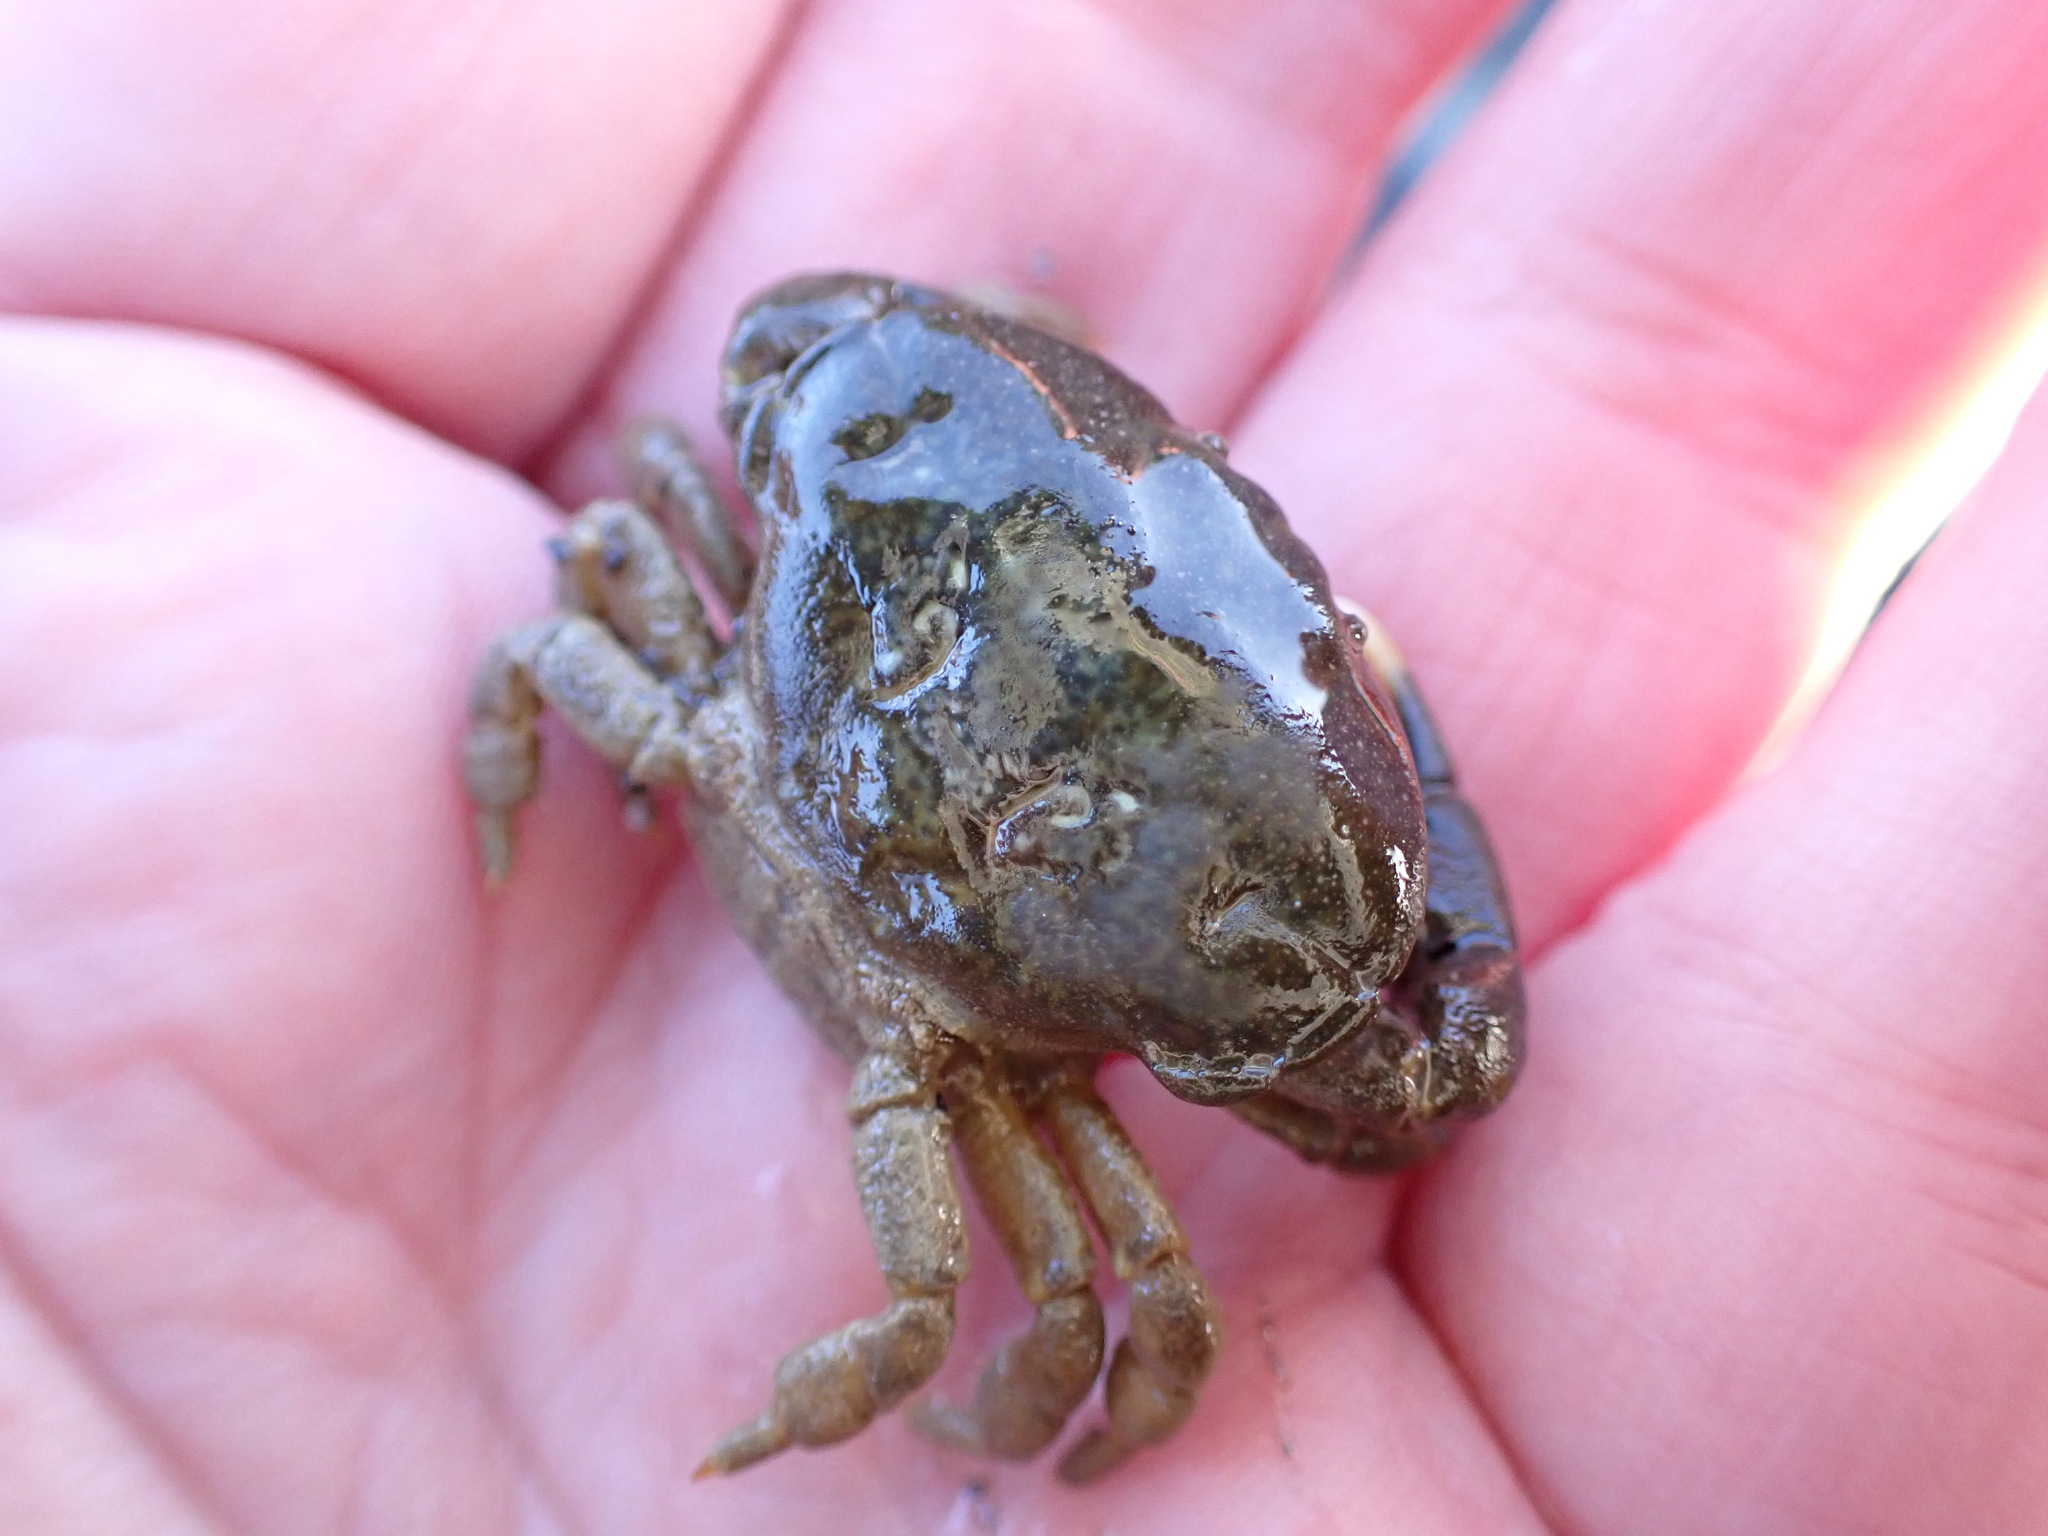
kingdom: Animalia
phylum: Arthropoda
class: Malacostraca
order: Decapoda
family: Heteroziidae
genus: Heterozius
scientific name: Heterozius rotundifrons
